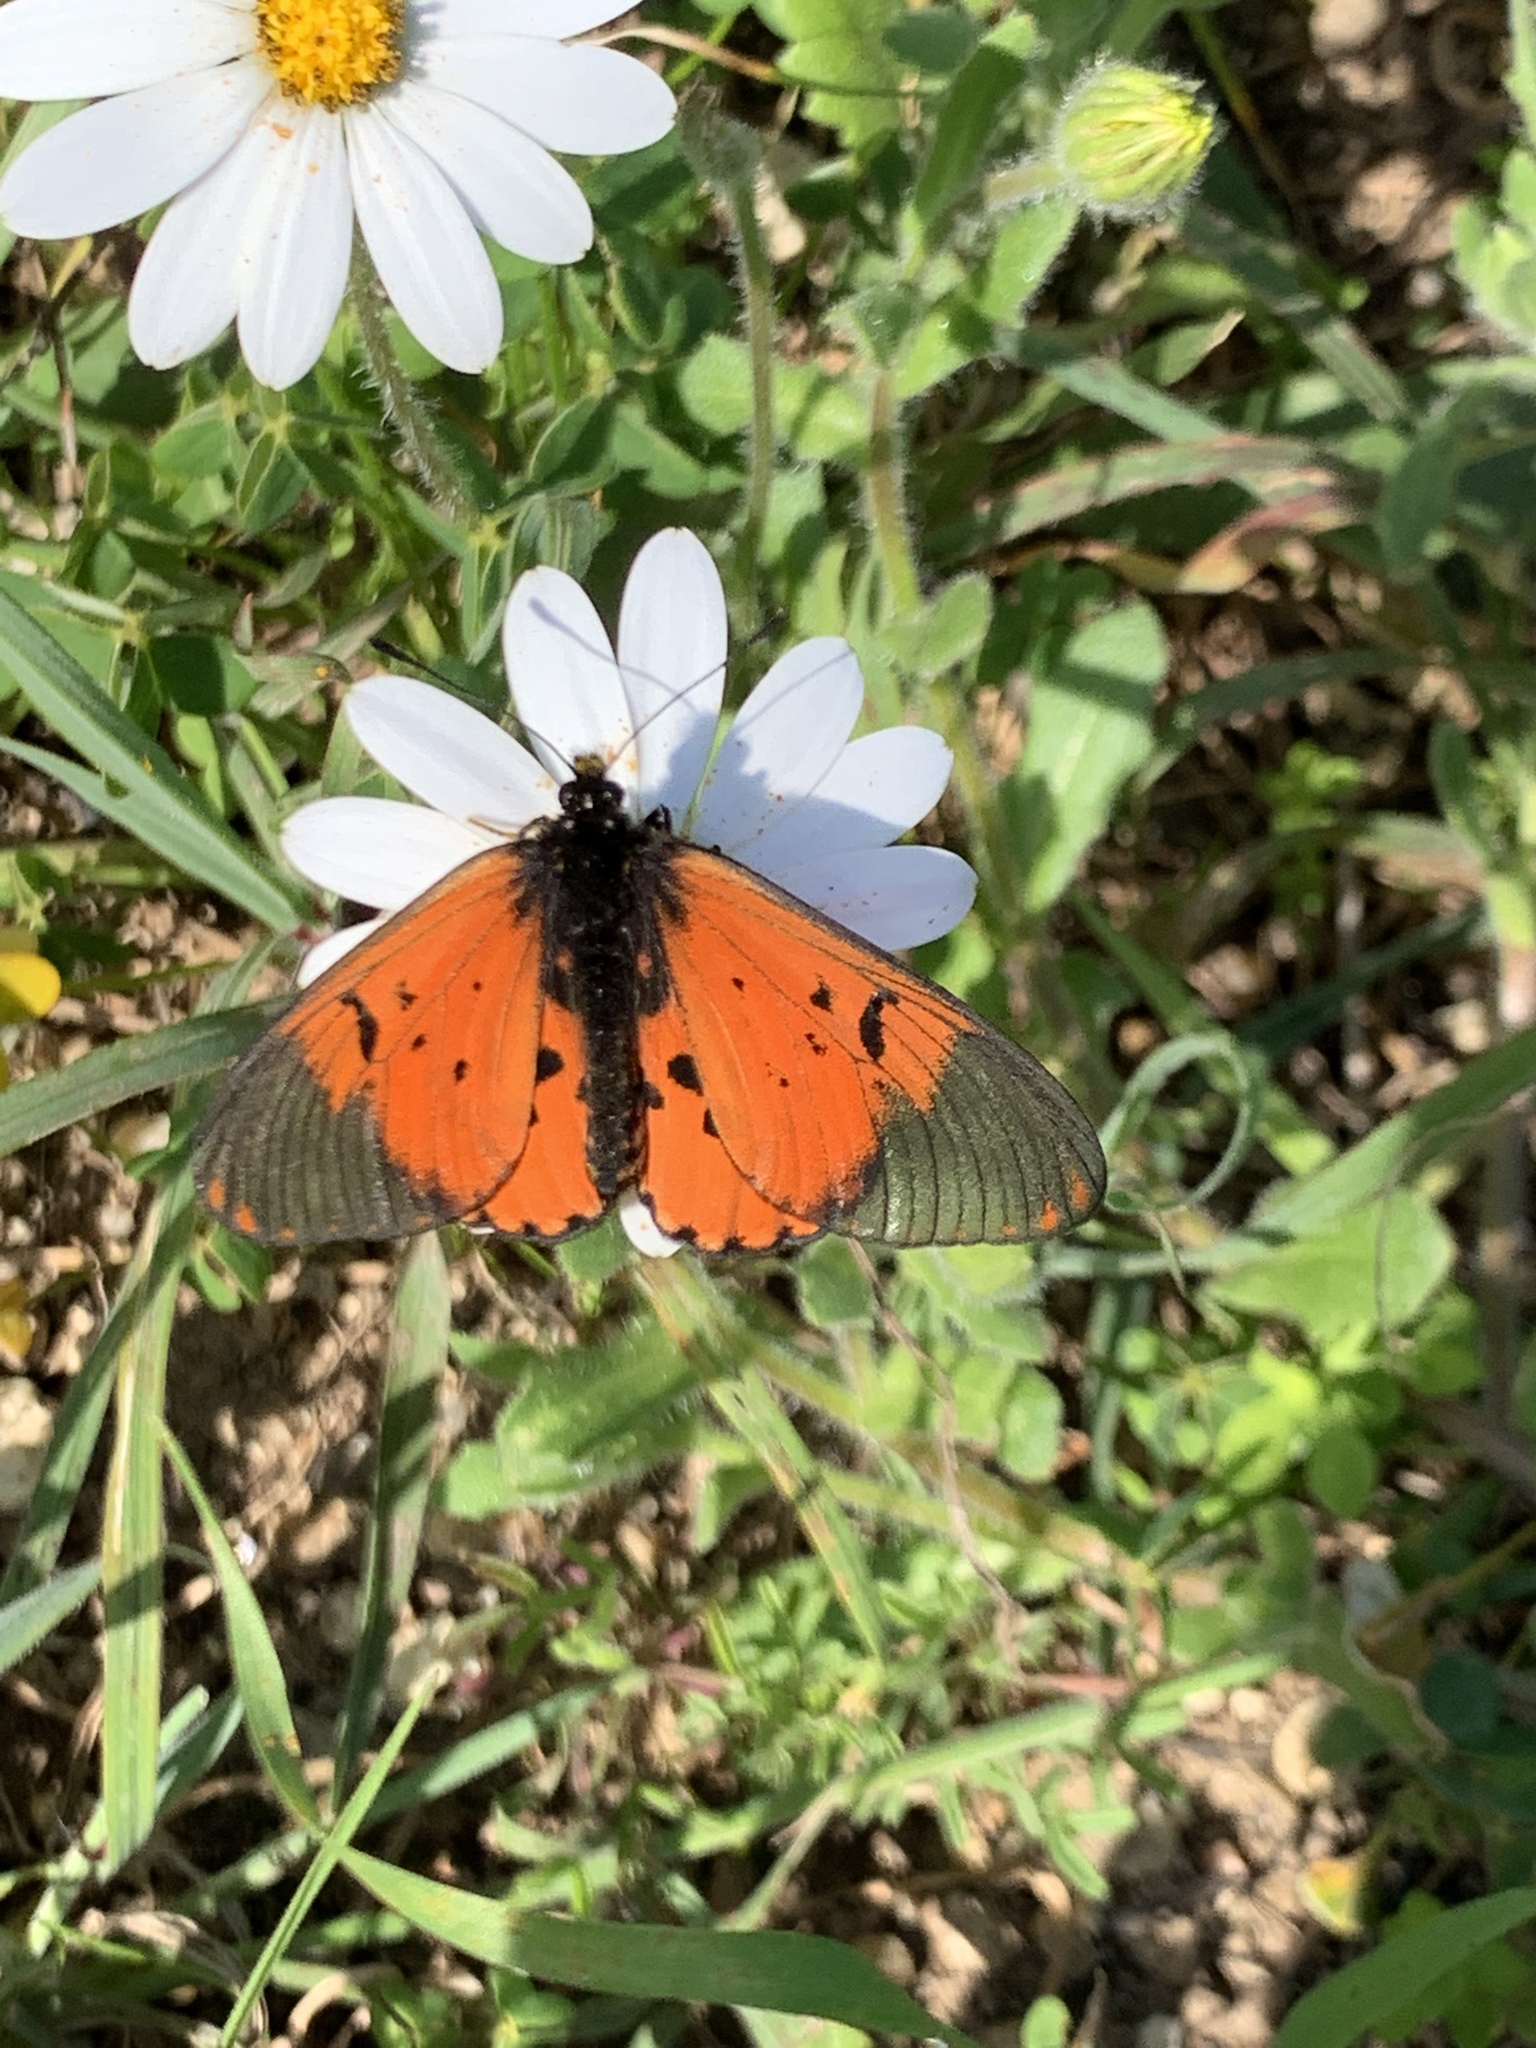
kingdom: Animalia
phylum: Arthropoda
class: Insecta
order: Lepidoptera
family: Nymphalidae
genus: Acraea
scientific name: Acraea horta
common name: Garden acraea
